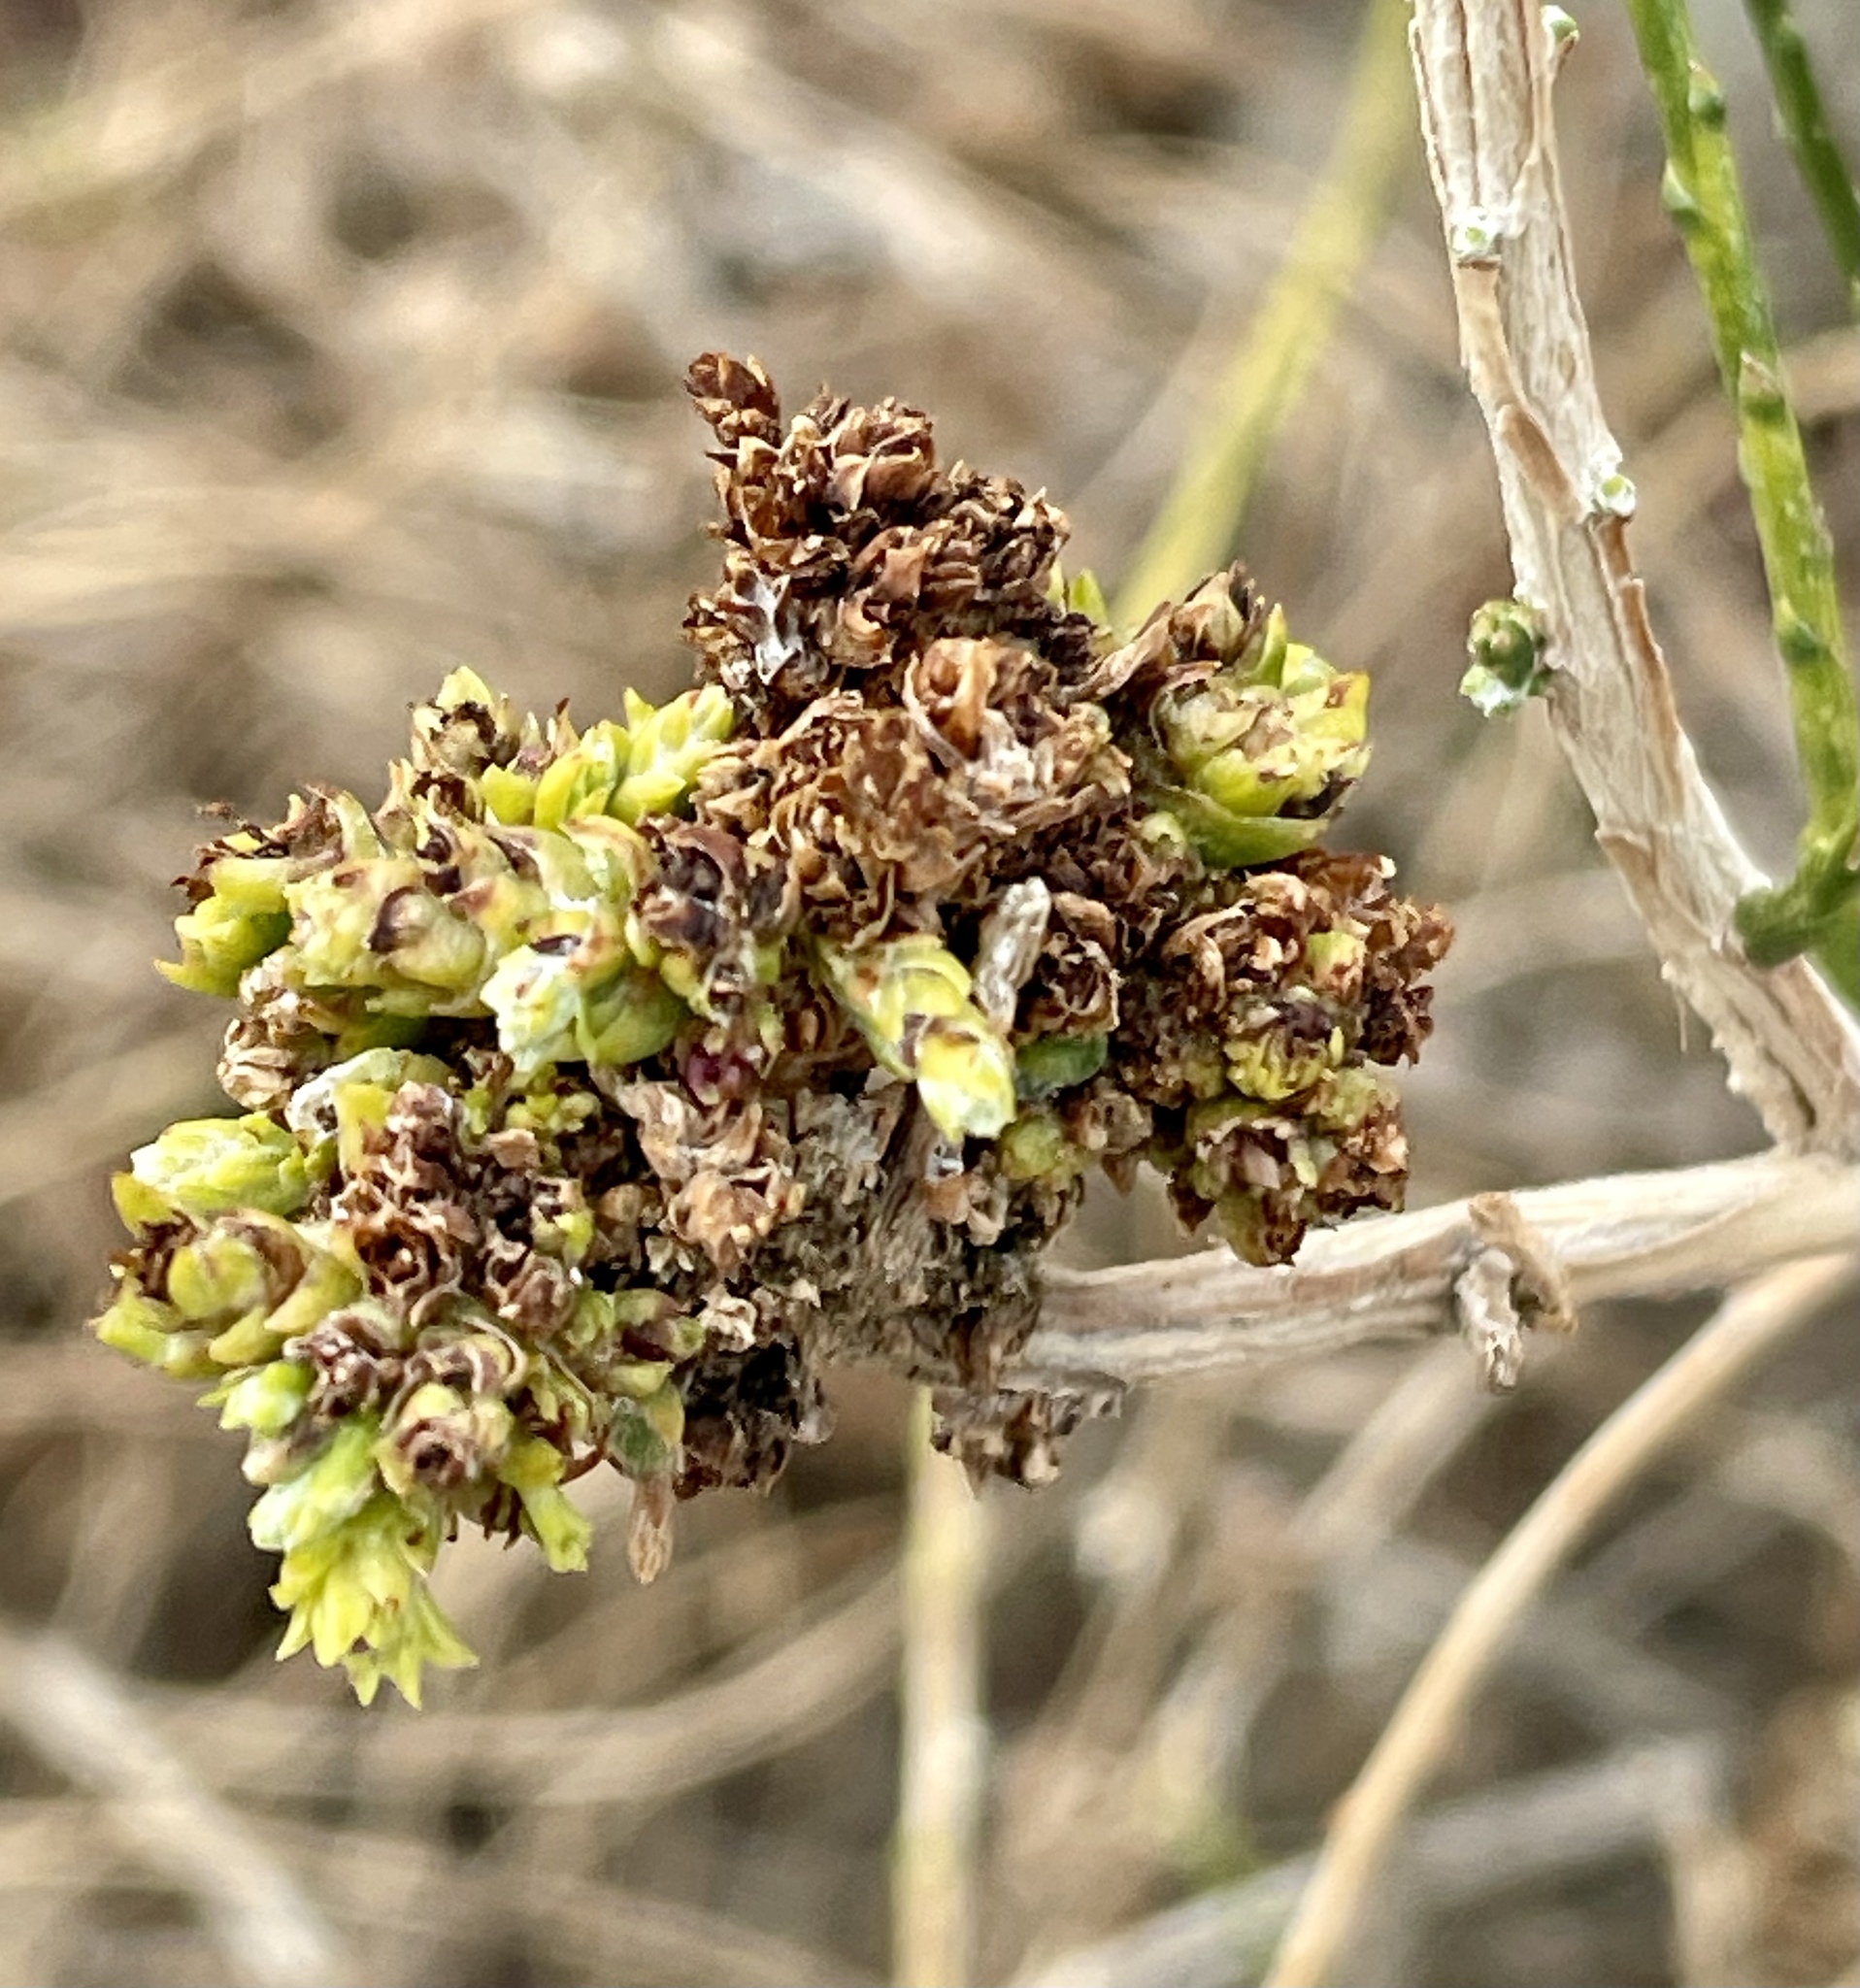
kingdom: Animalia
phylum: Arthropoda
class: Arachnida
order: Trombidiformes
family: Eriophyidae
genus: Eriophyes
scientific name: Eriophyes
